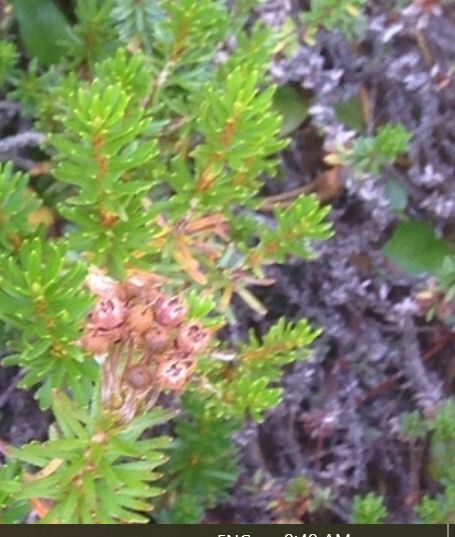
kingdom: Plantae
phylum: Tracheophyta
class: Magnoliopsida
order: Ericales
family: Ericaceae
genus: Phyllodoce
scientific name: Phyllodoce empetriformis
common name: Pink mountain heather
